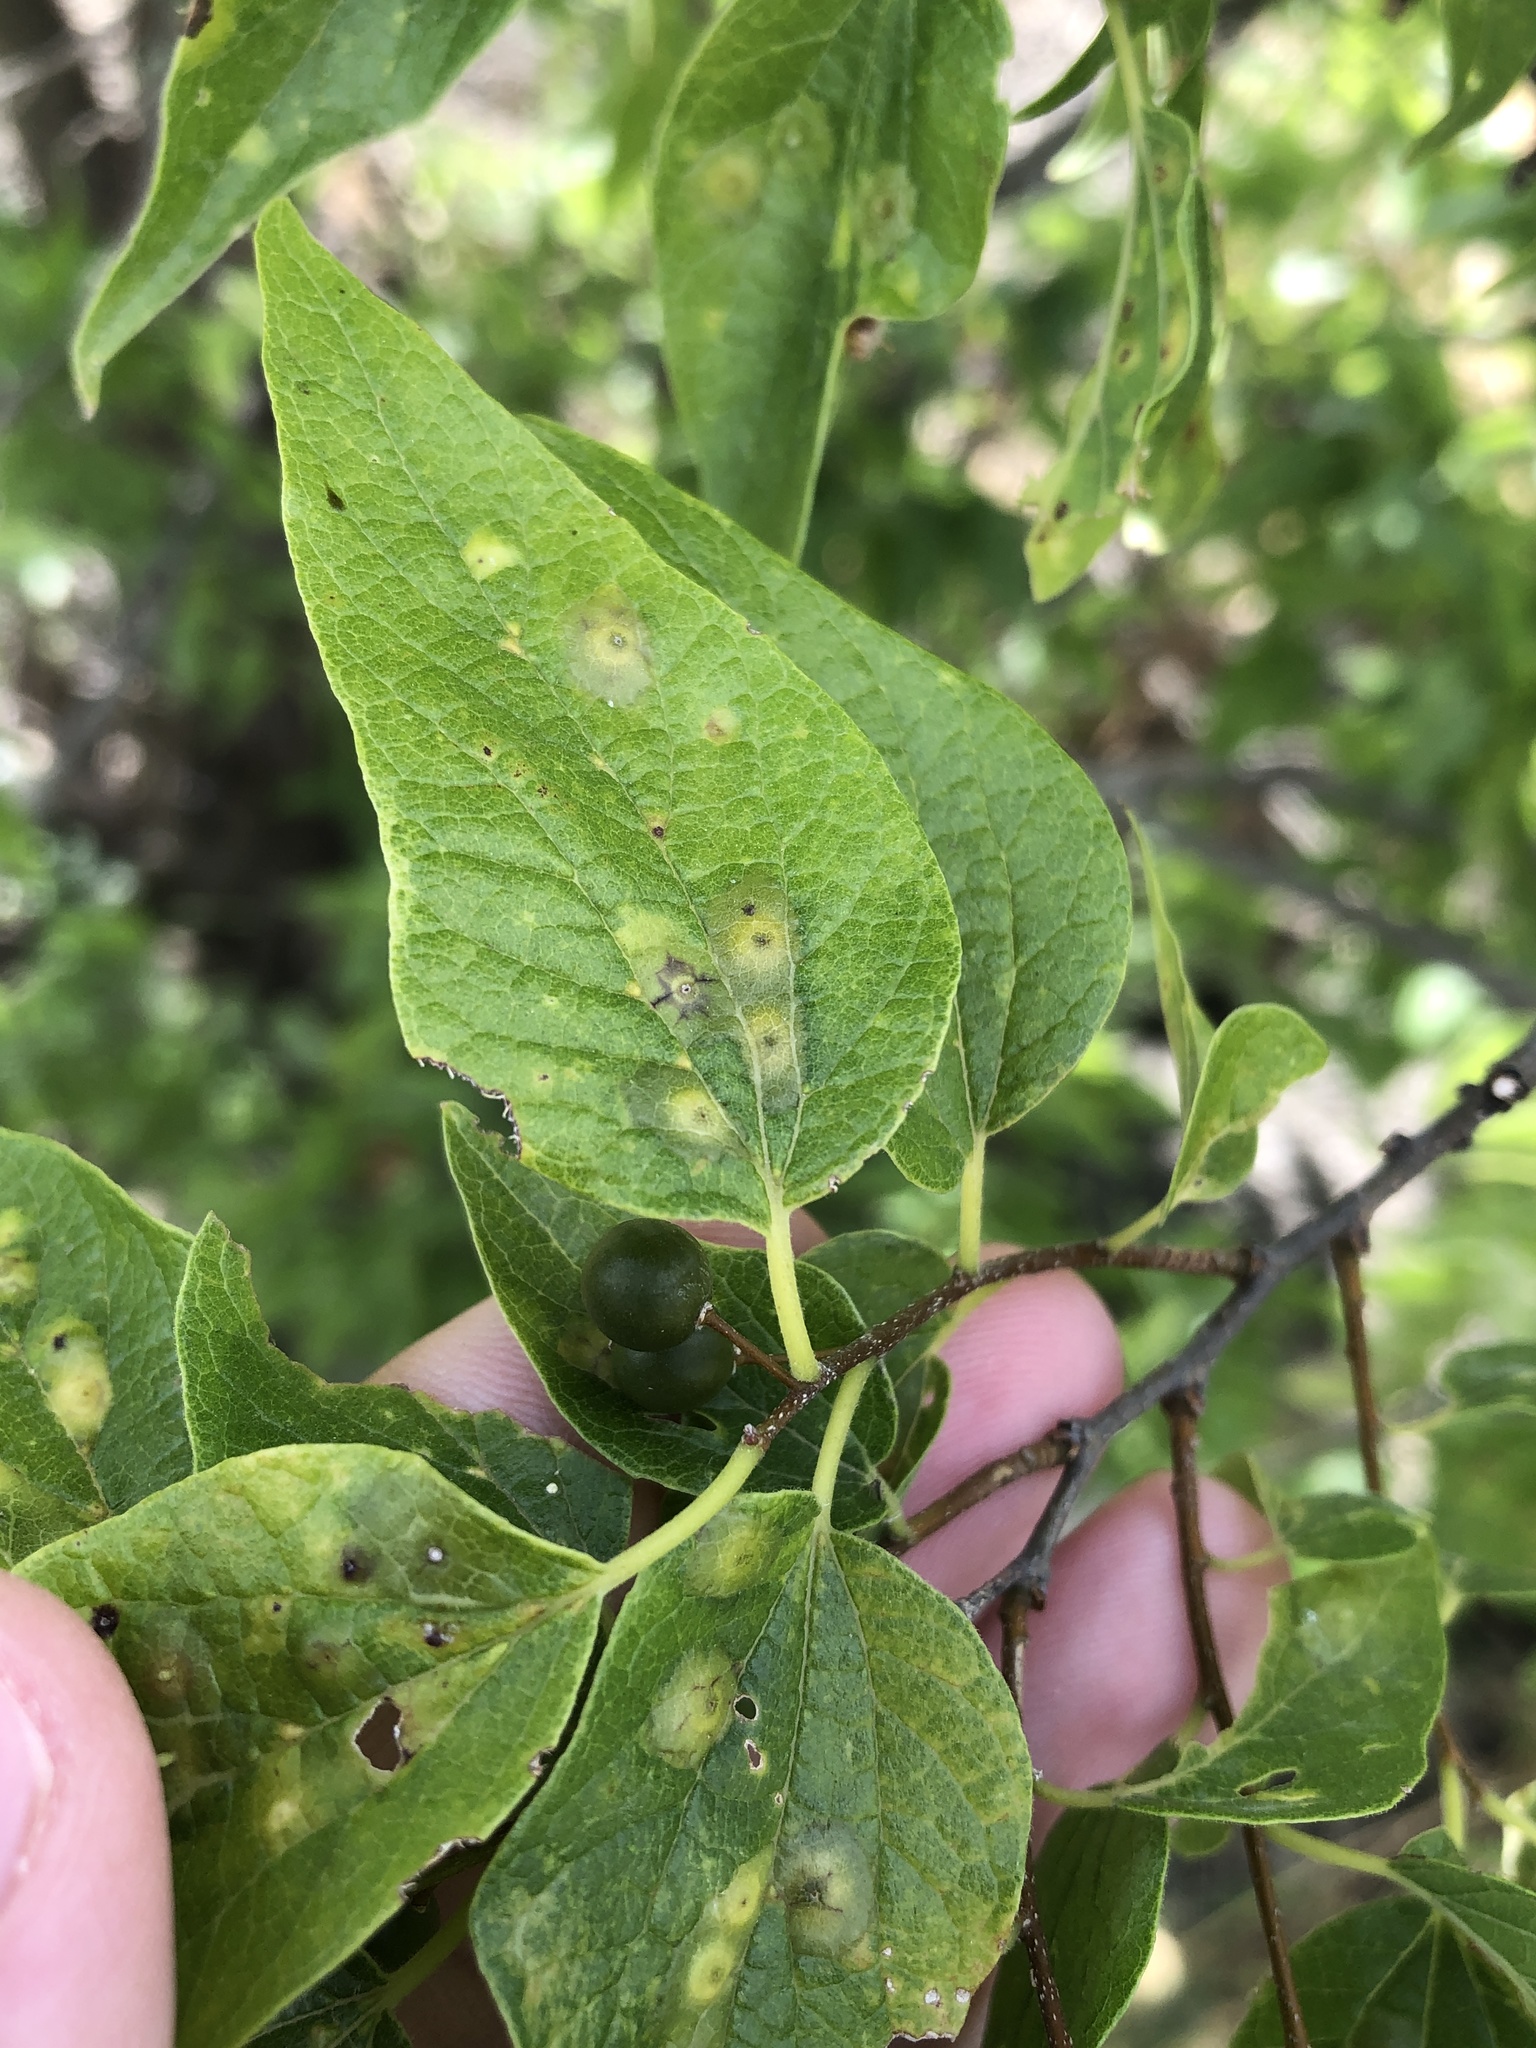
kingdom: Plantae
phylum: Tracheophyta
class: Magnoliopsida
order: Rosales
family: Cannabaceae
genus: Celtis
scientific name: Celtis laevigata
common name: Sugarberry
